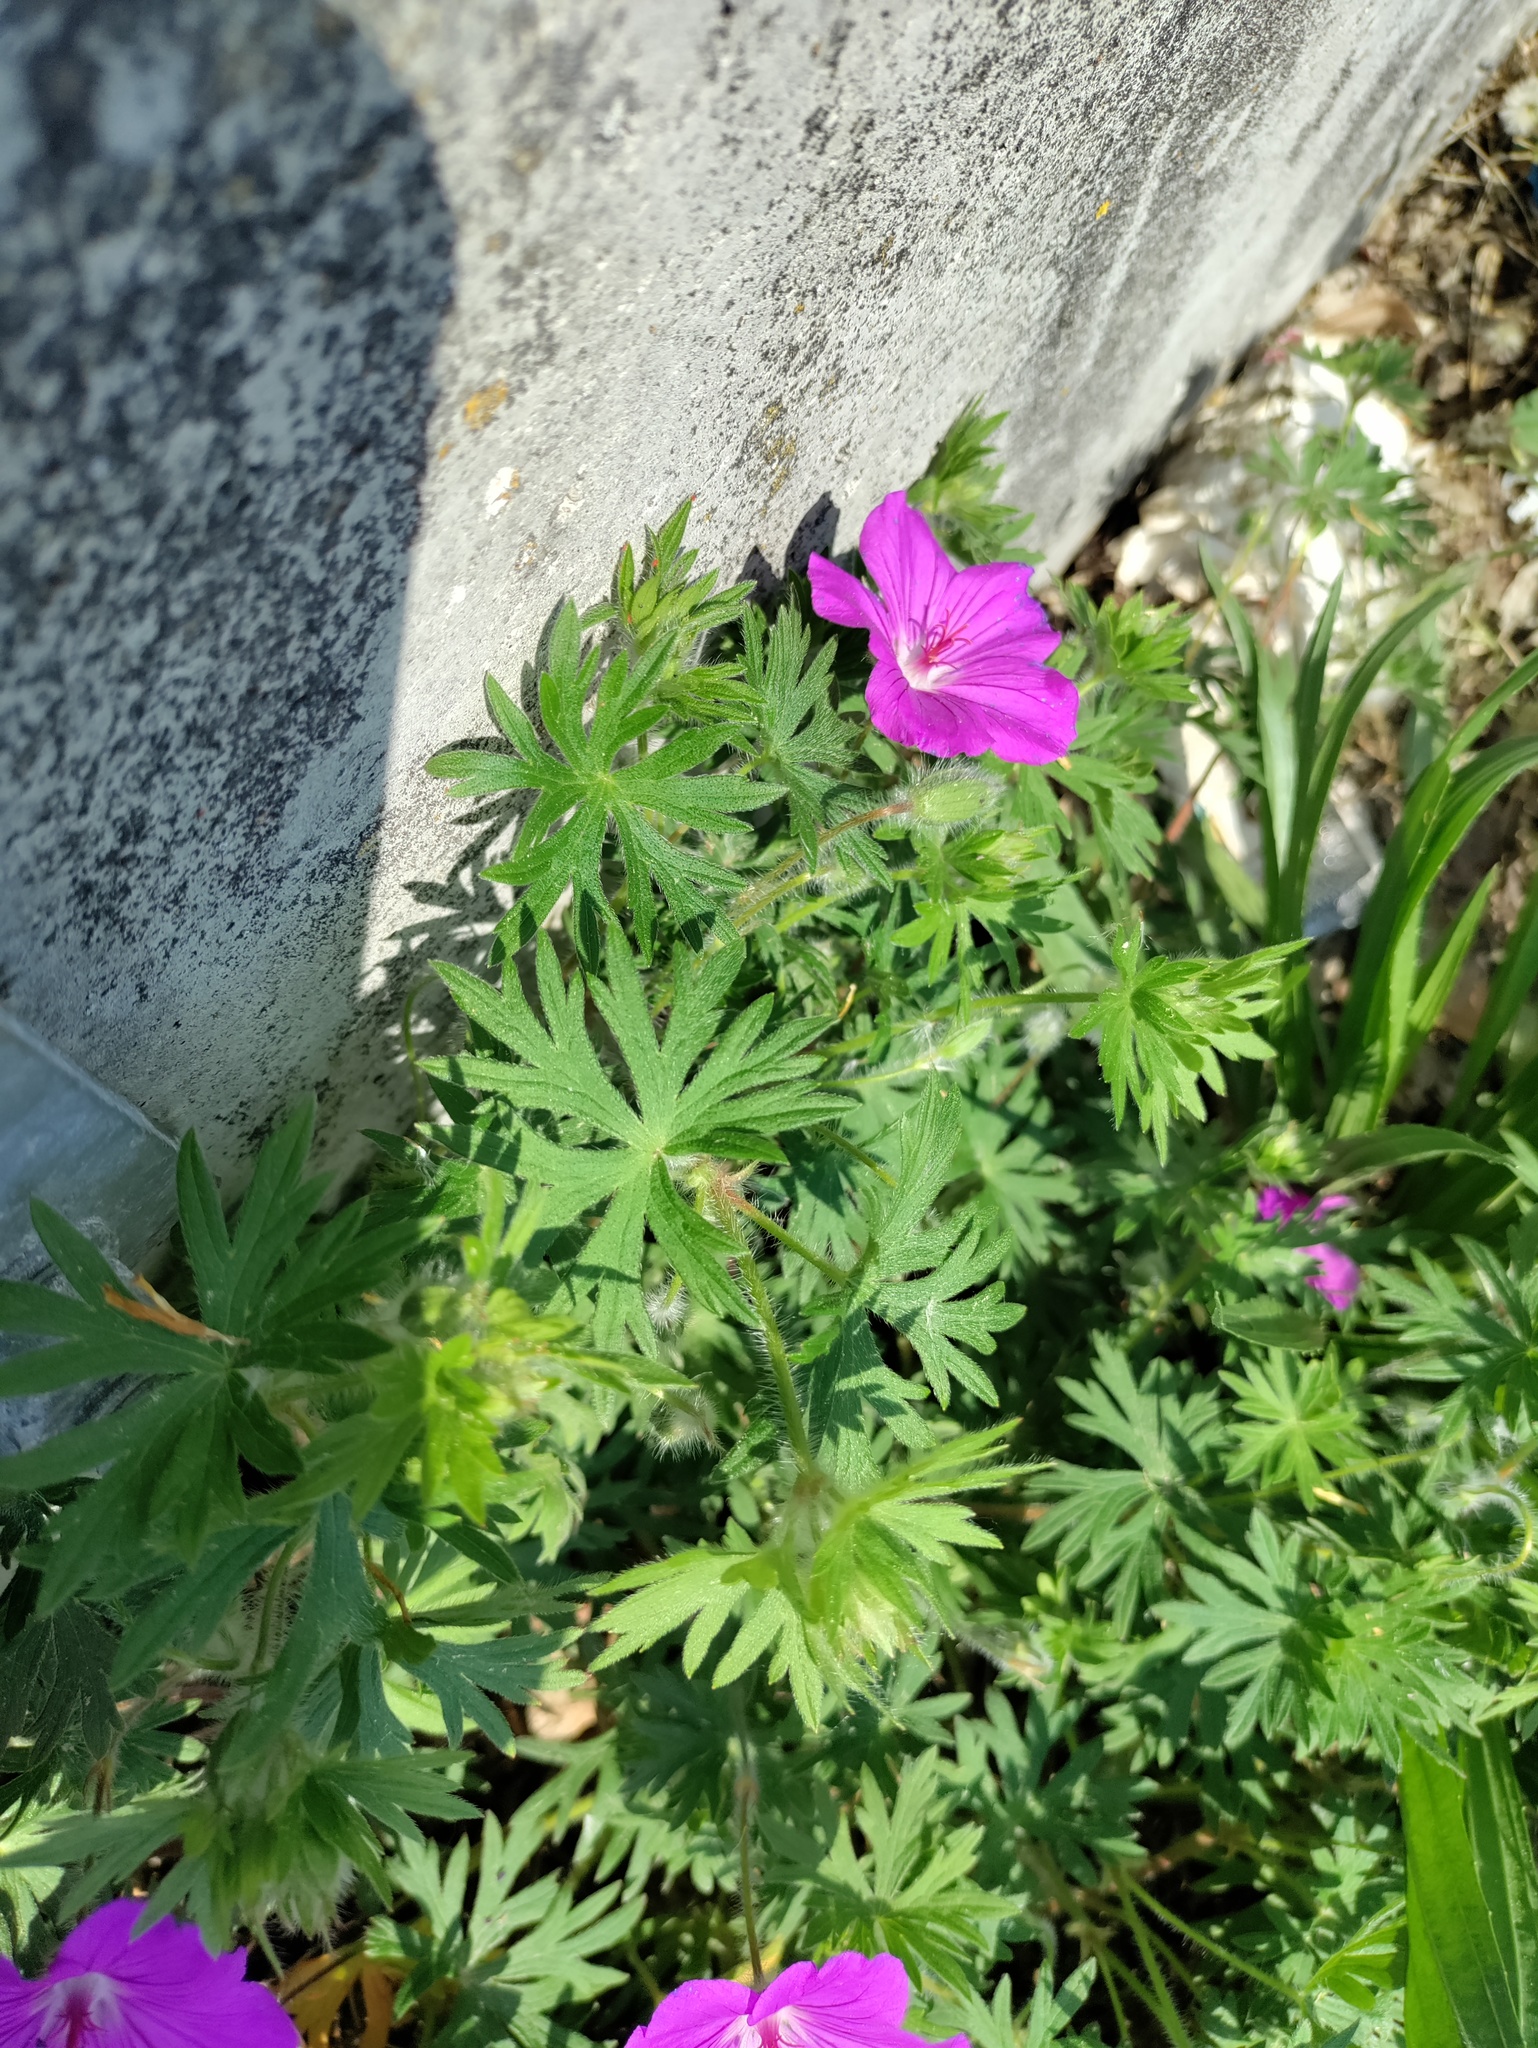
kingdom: Plantae
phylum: Tracheophyta
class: Magnoliopsida
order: Geraniales
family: Geraniaceae
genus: Geranium
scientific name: Geranium sanguineum
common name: Bloody crane's-bill
